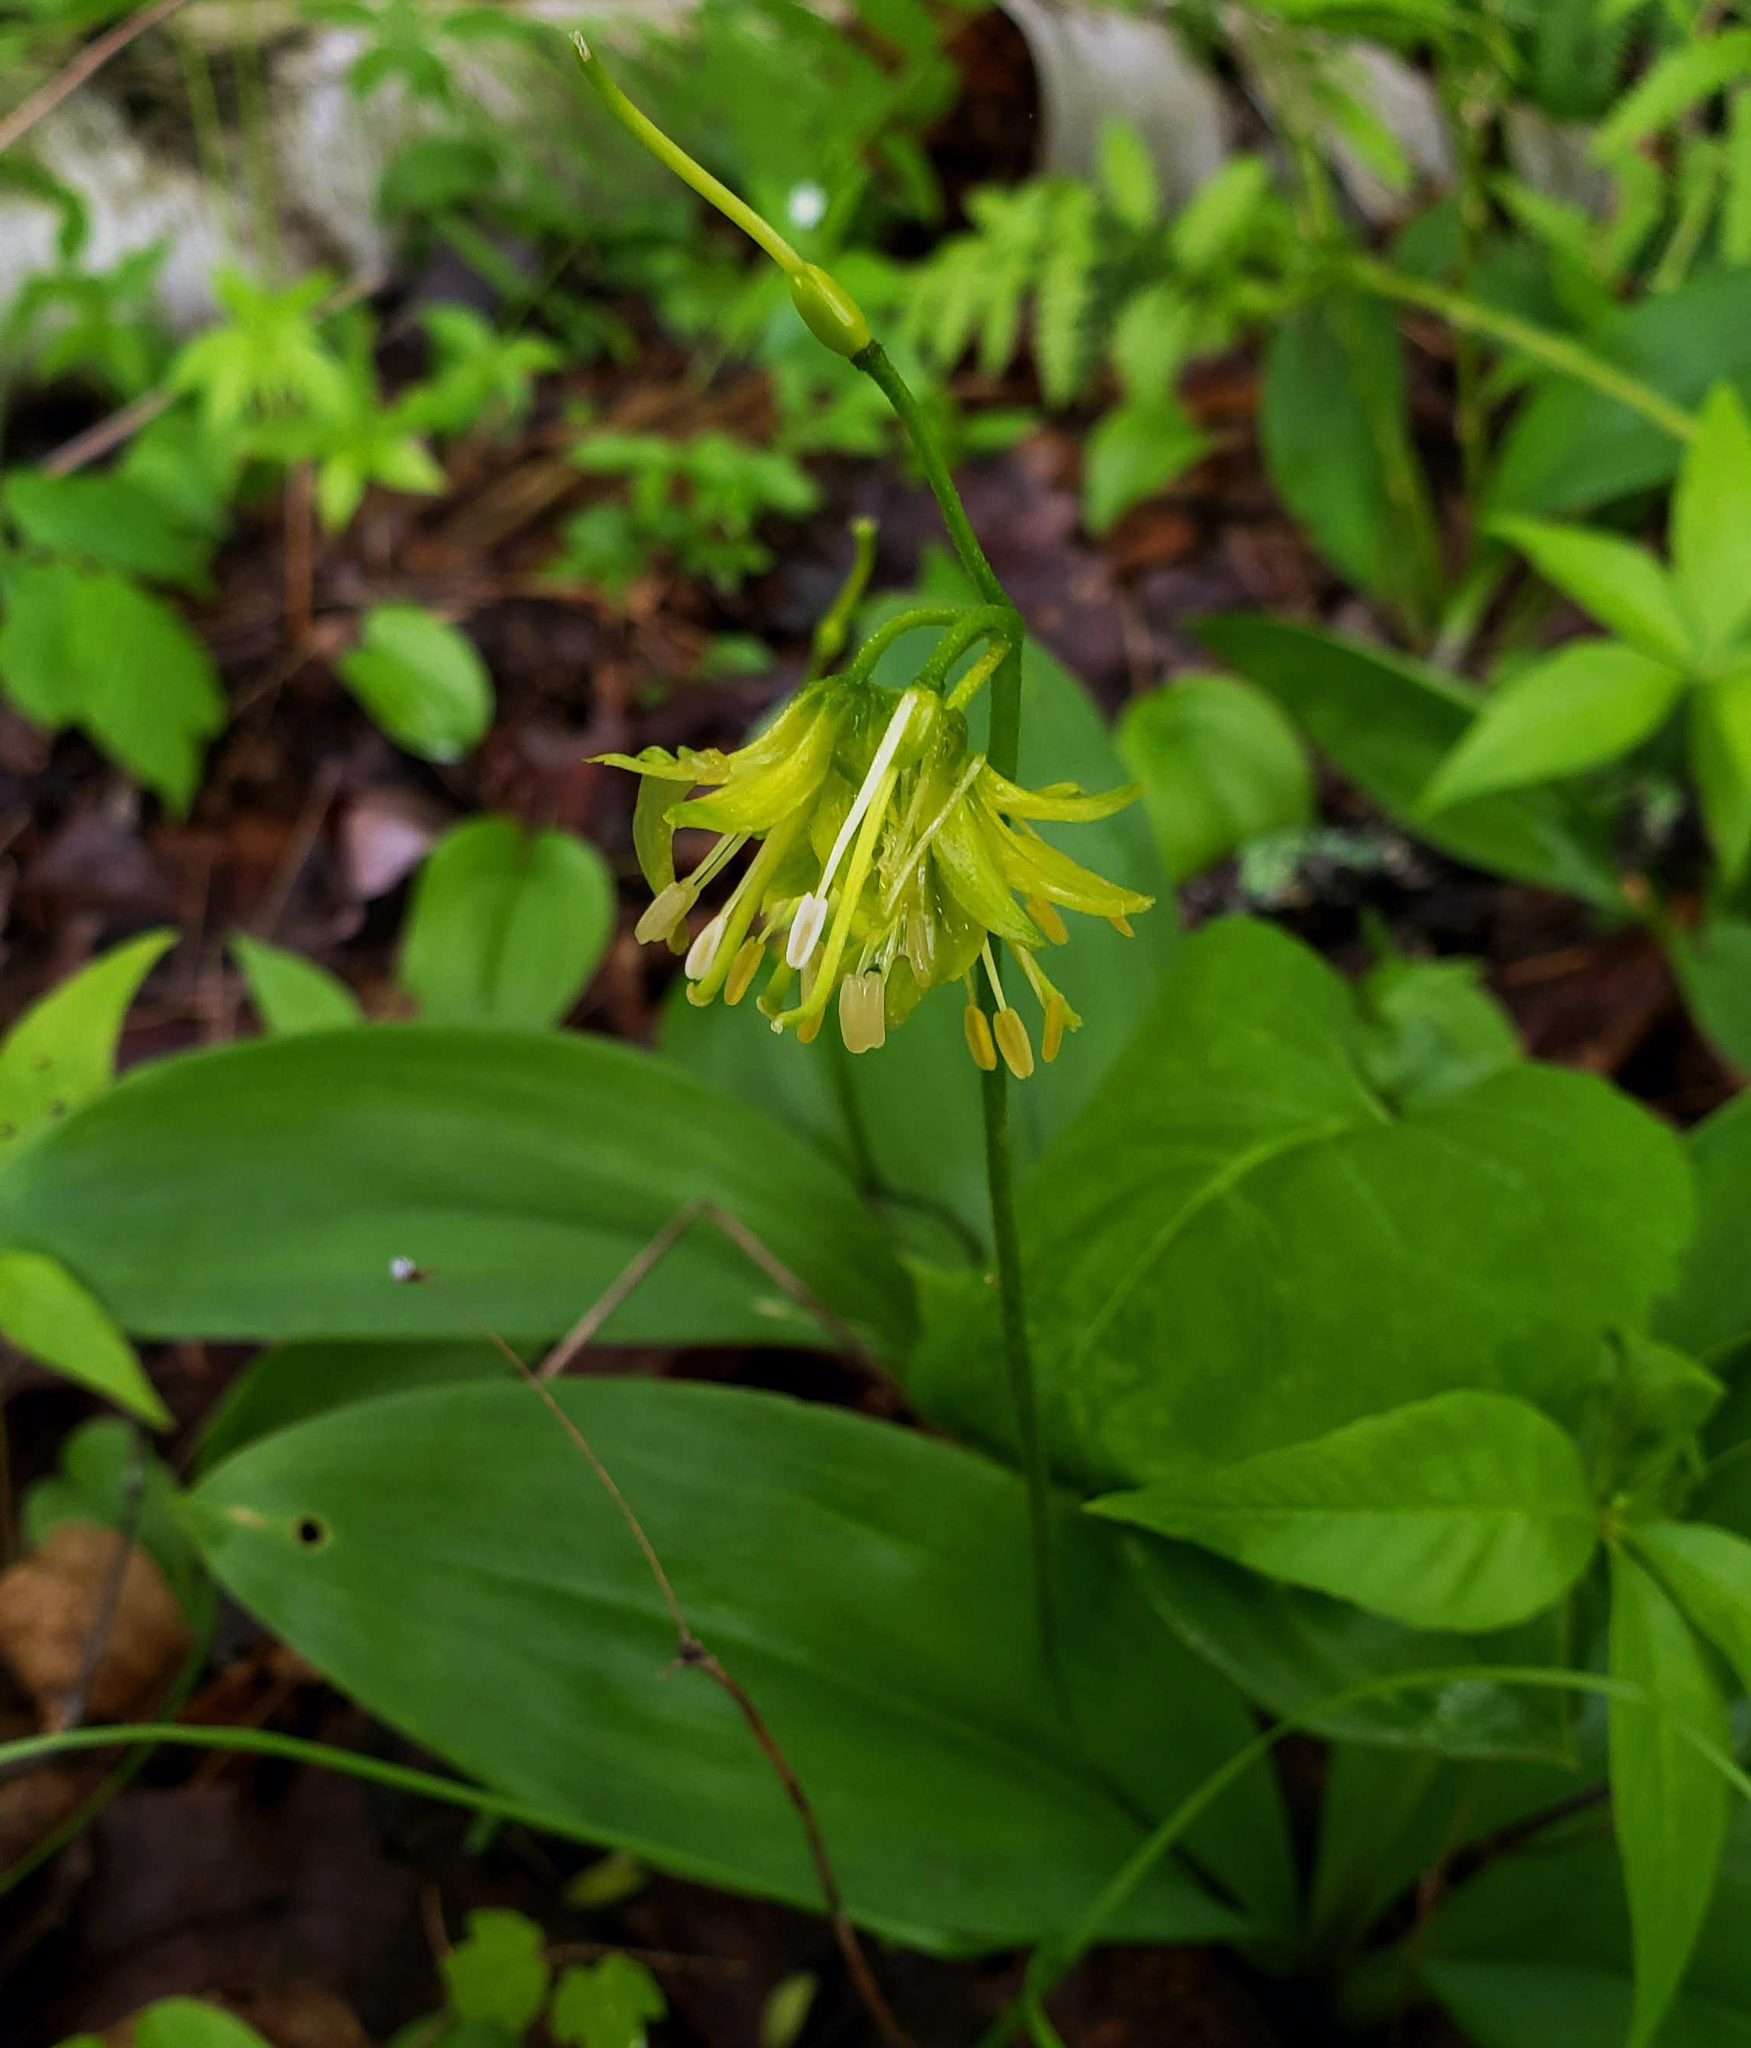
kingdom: Plantae
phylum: Tracheophyta
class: Liliopsida
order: Liliales
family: Liliaceae
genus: Clintonia
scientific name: Clintonia borealis
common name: Yellow clintonia
